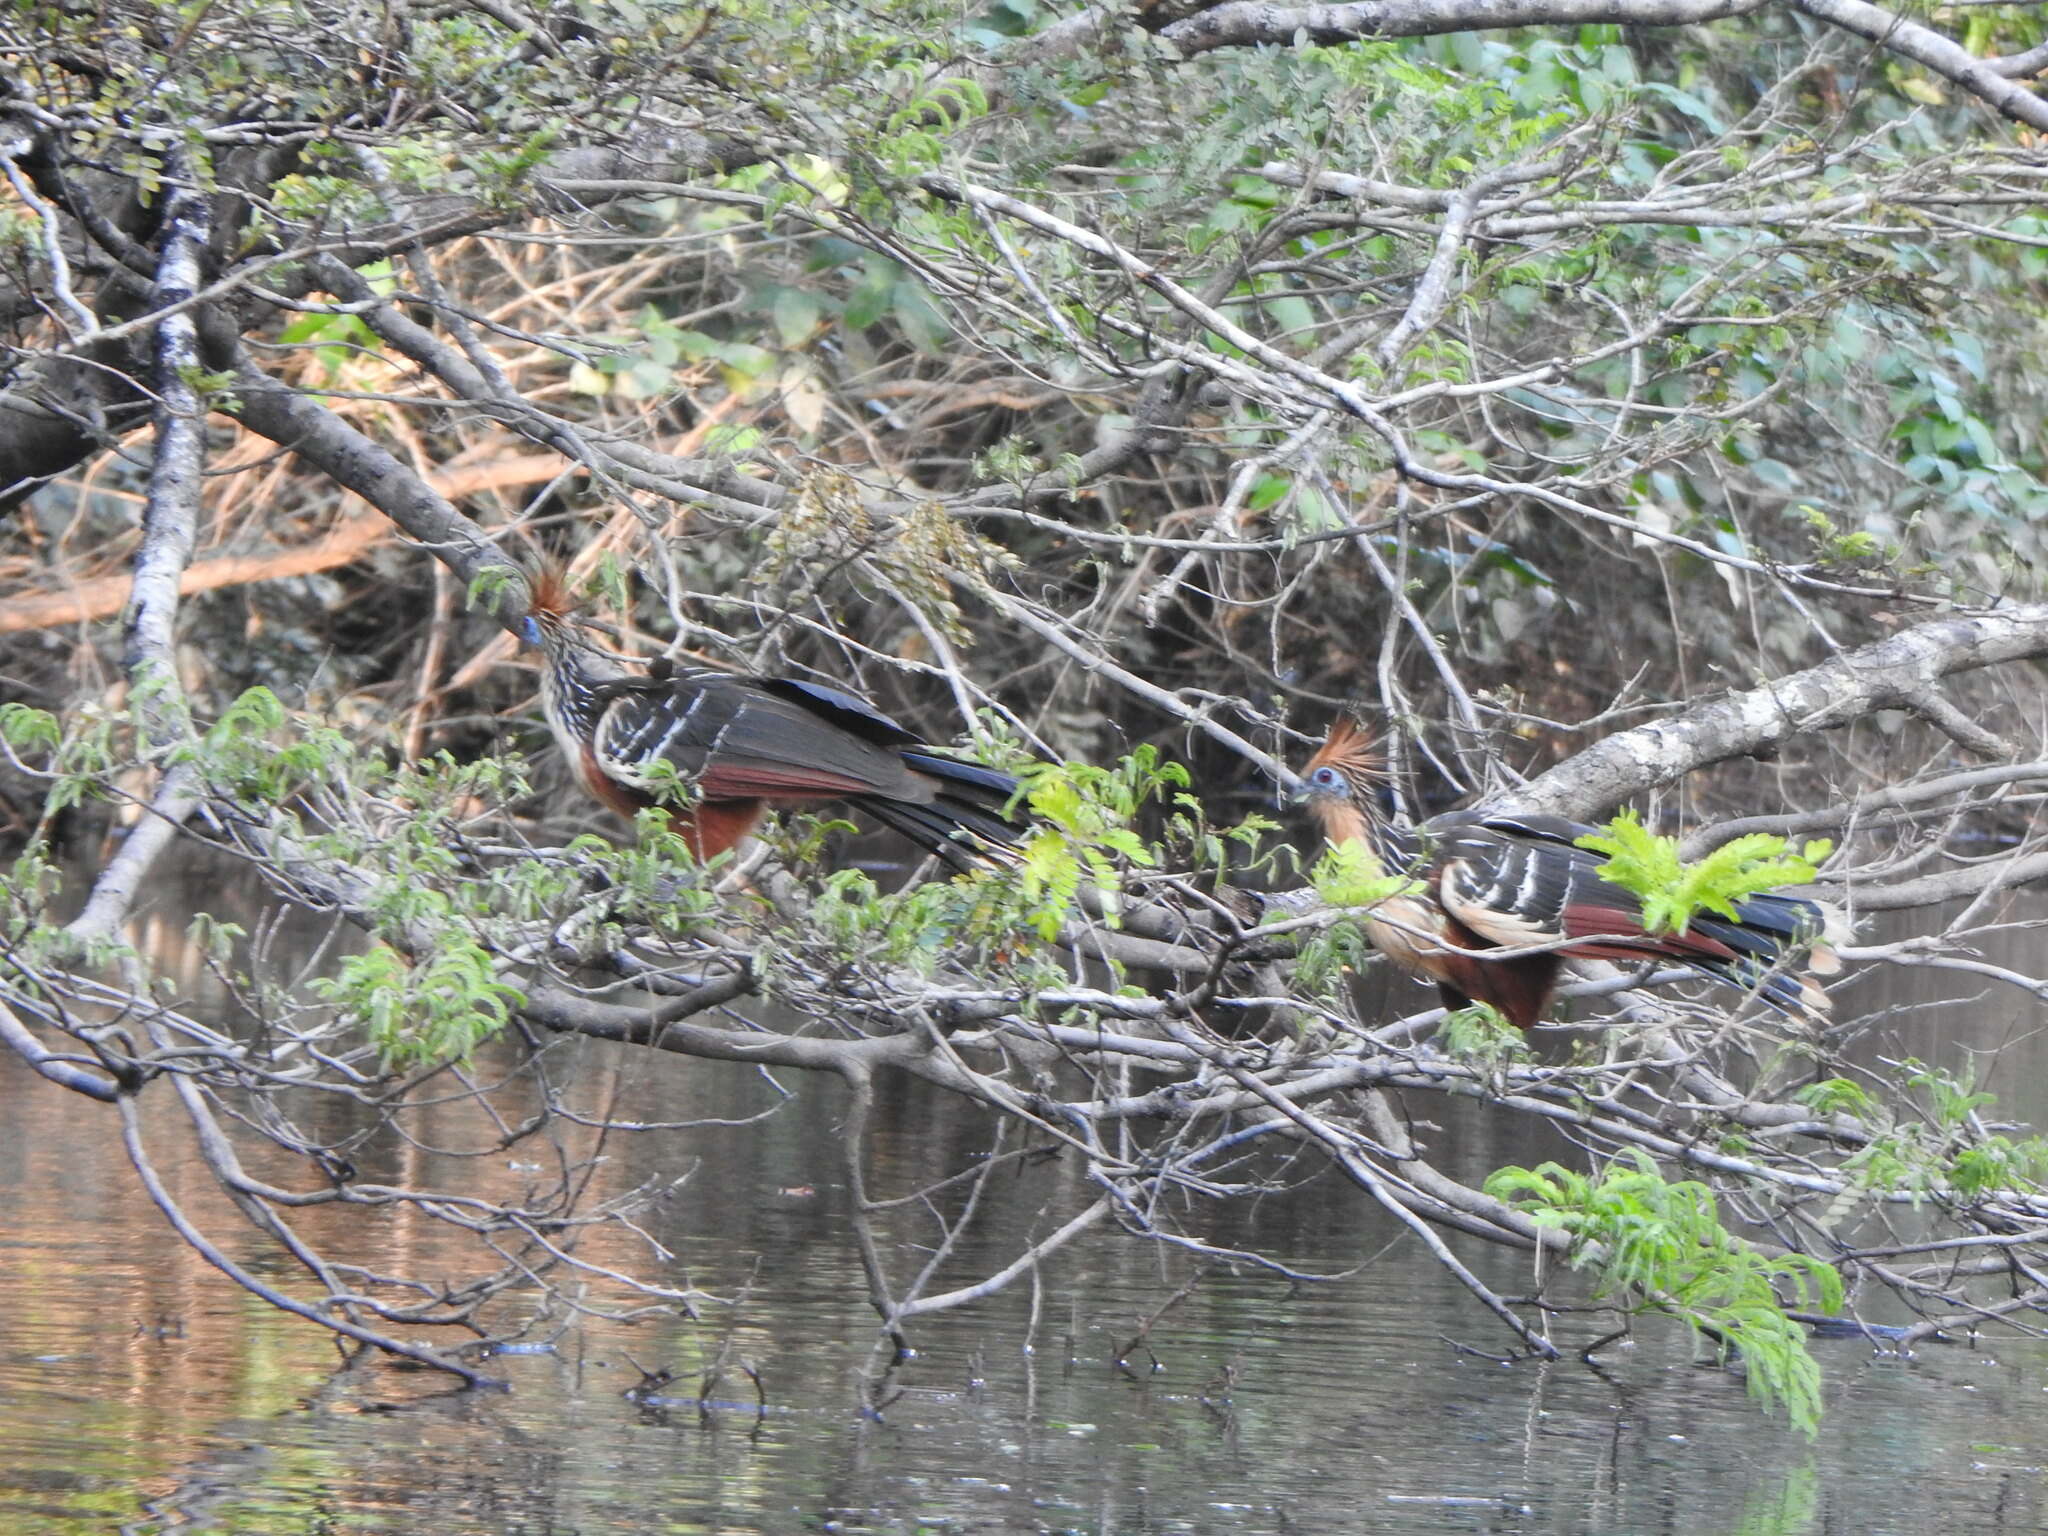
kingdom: Animalia
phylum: Chordata
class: Aves
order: Opisthocomiformes
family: Opisthocomidae
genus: Opisthocomus
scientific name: Opisthocomus hoazin
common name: Hoatzin
